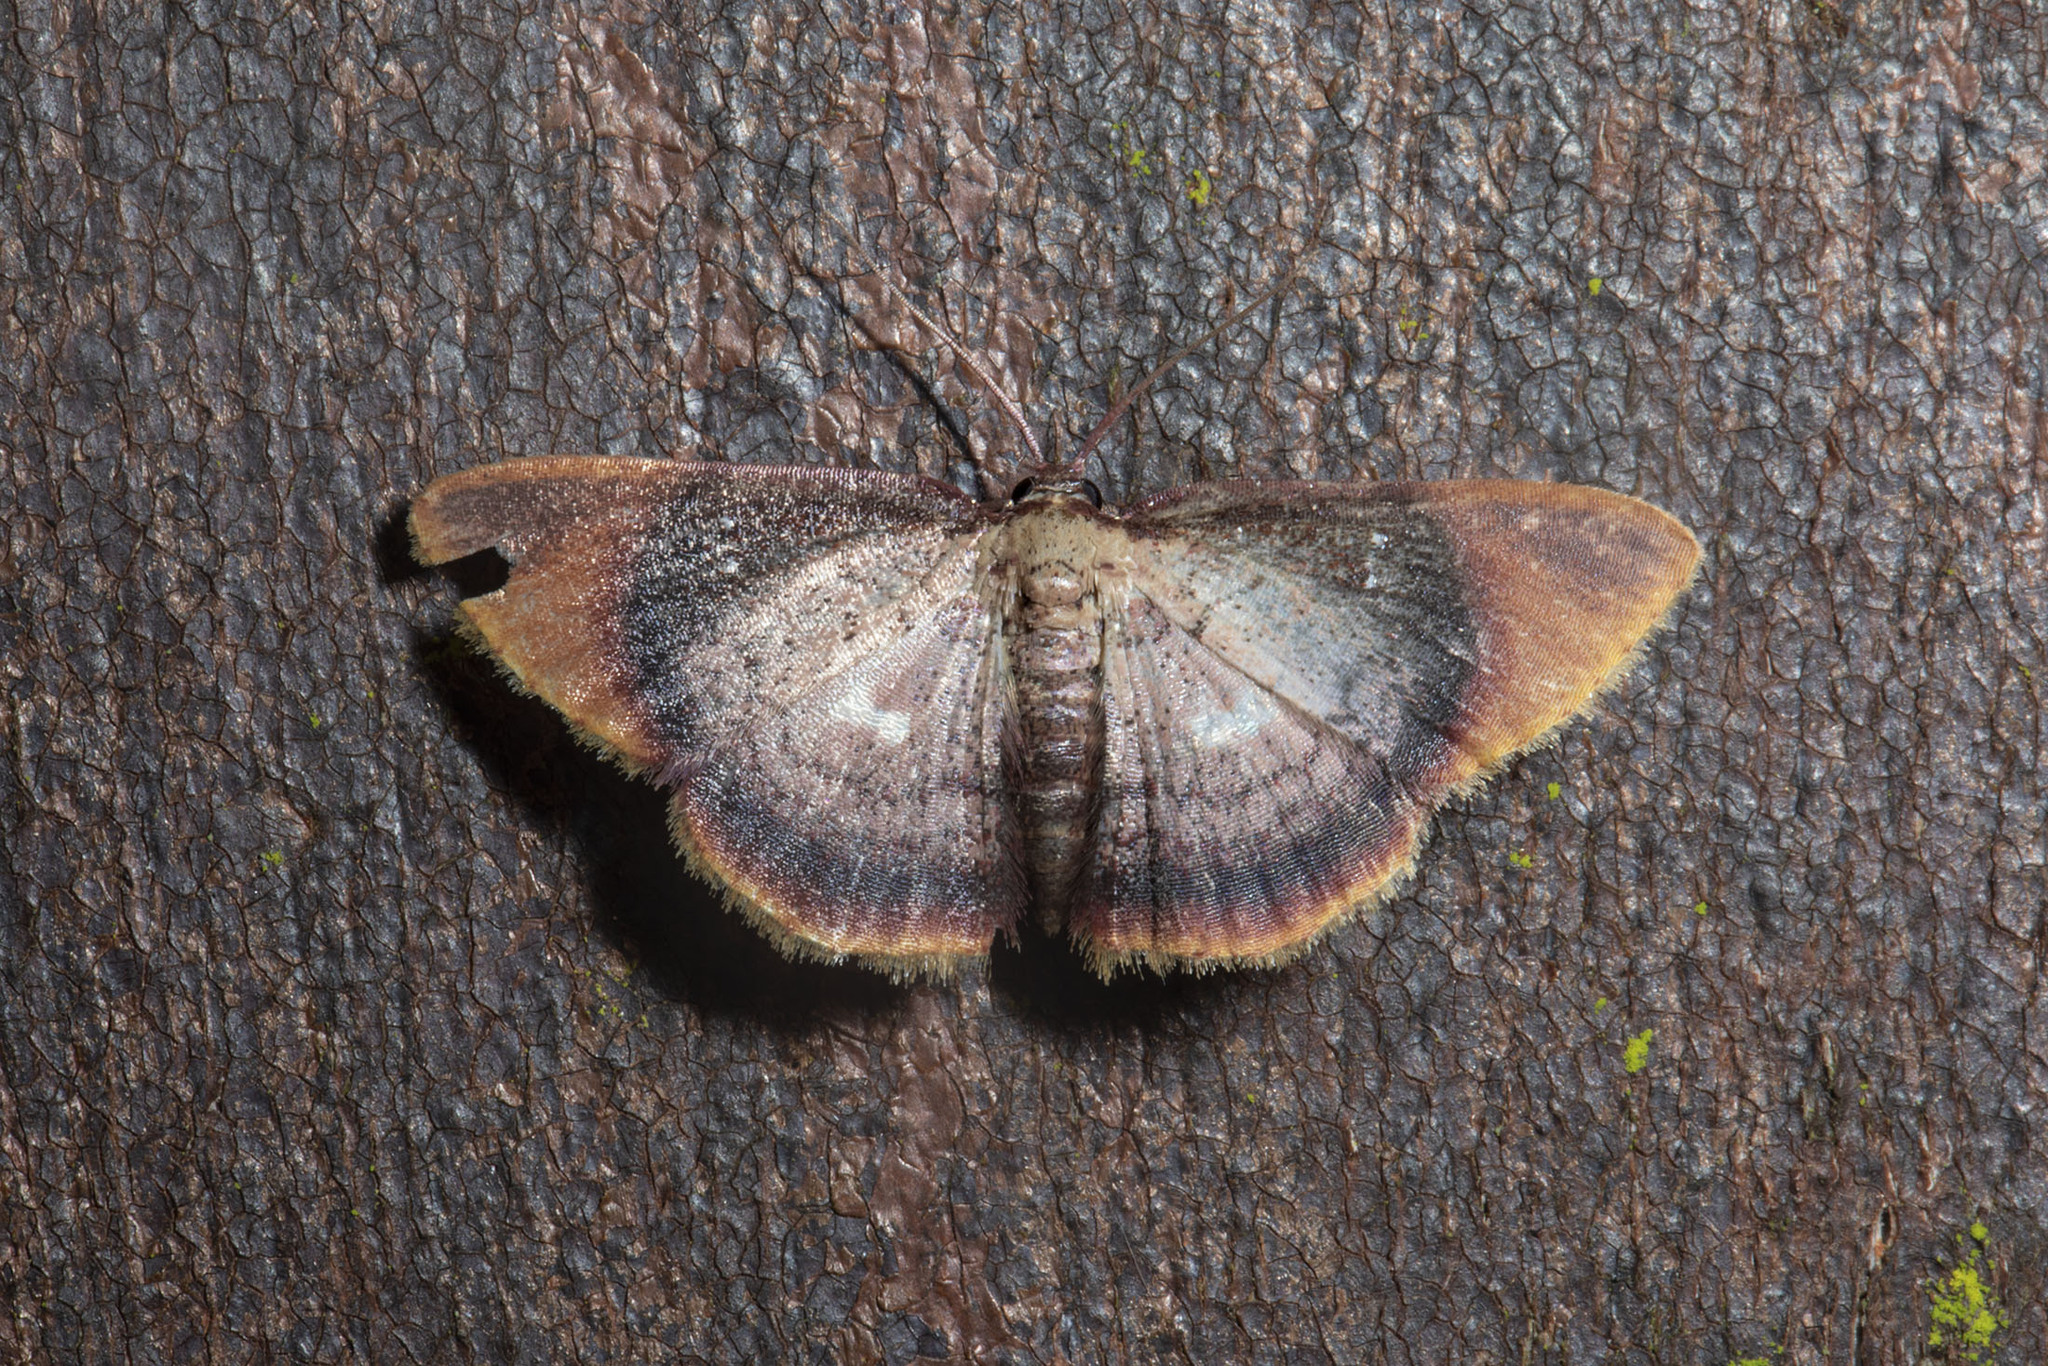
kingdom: Animalia
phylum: Arthropoda
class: Insecta
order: Lepidoptera
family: Geometridae
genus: Tricentra
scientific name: Tricentra albiguttata
